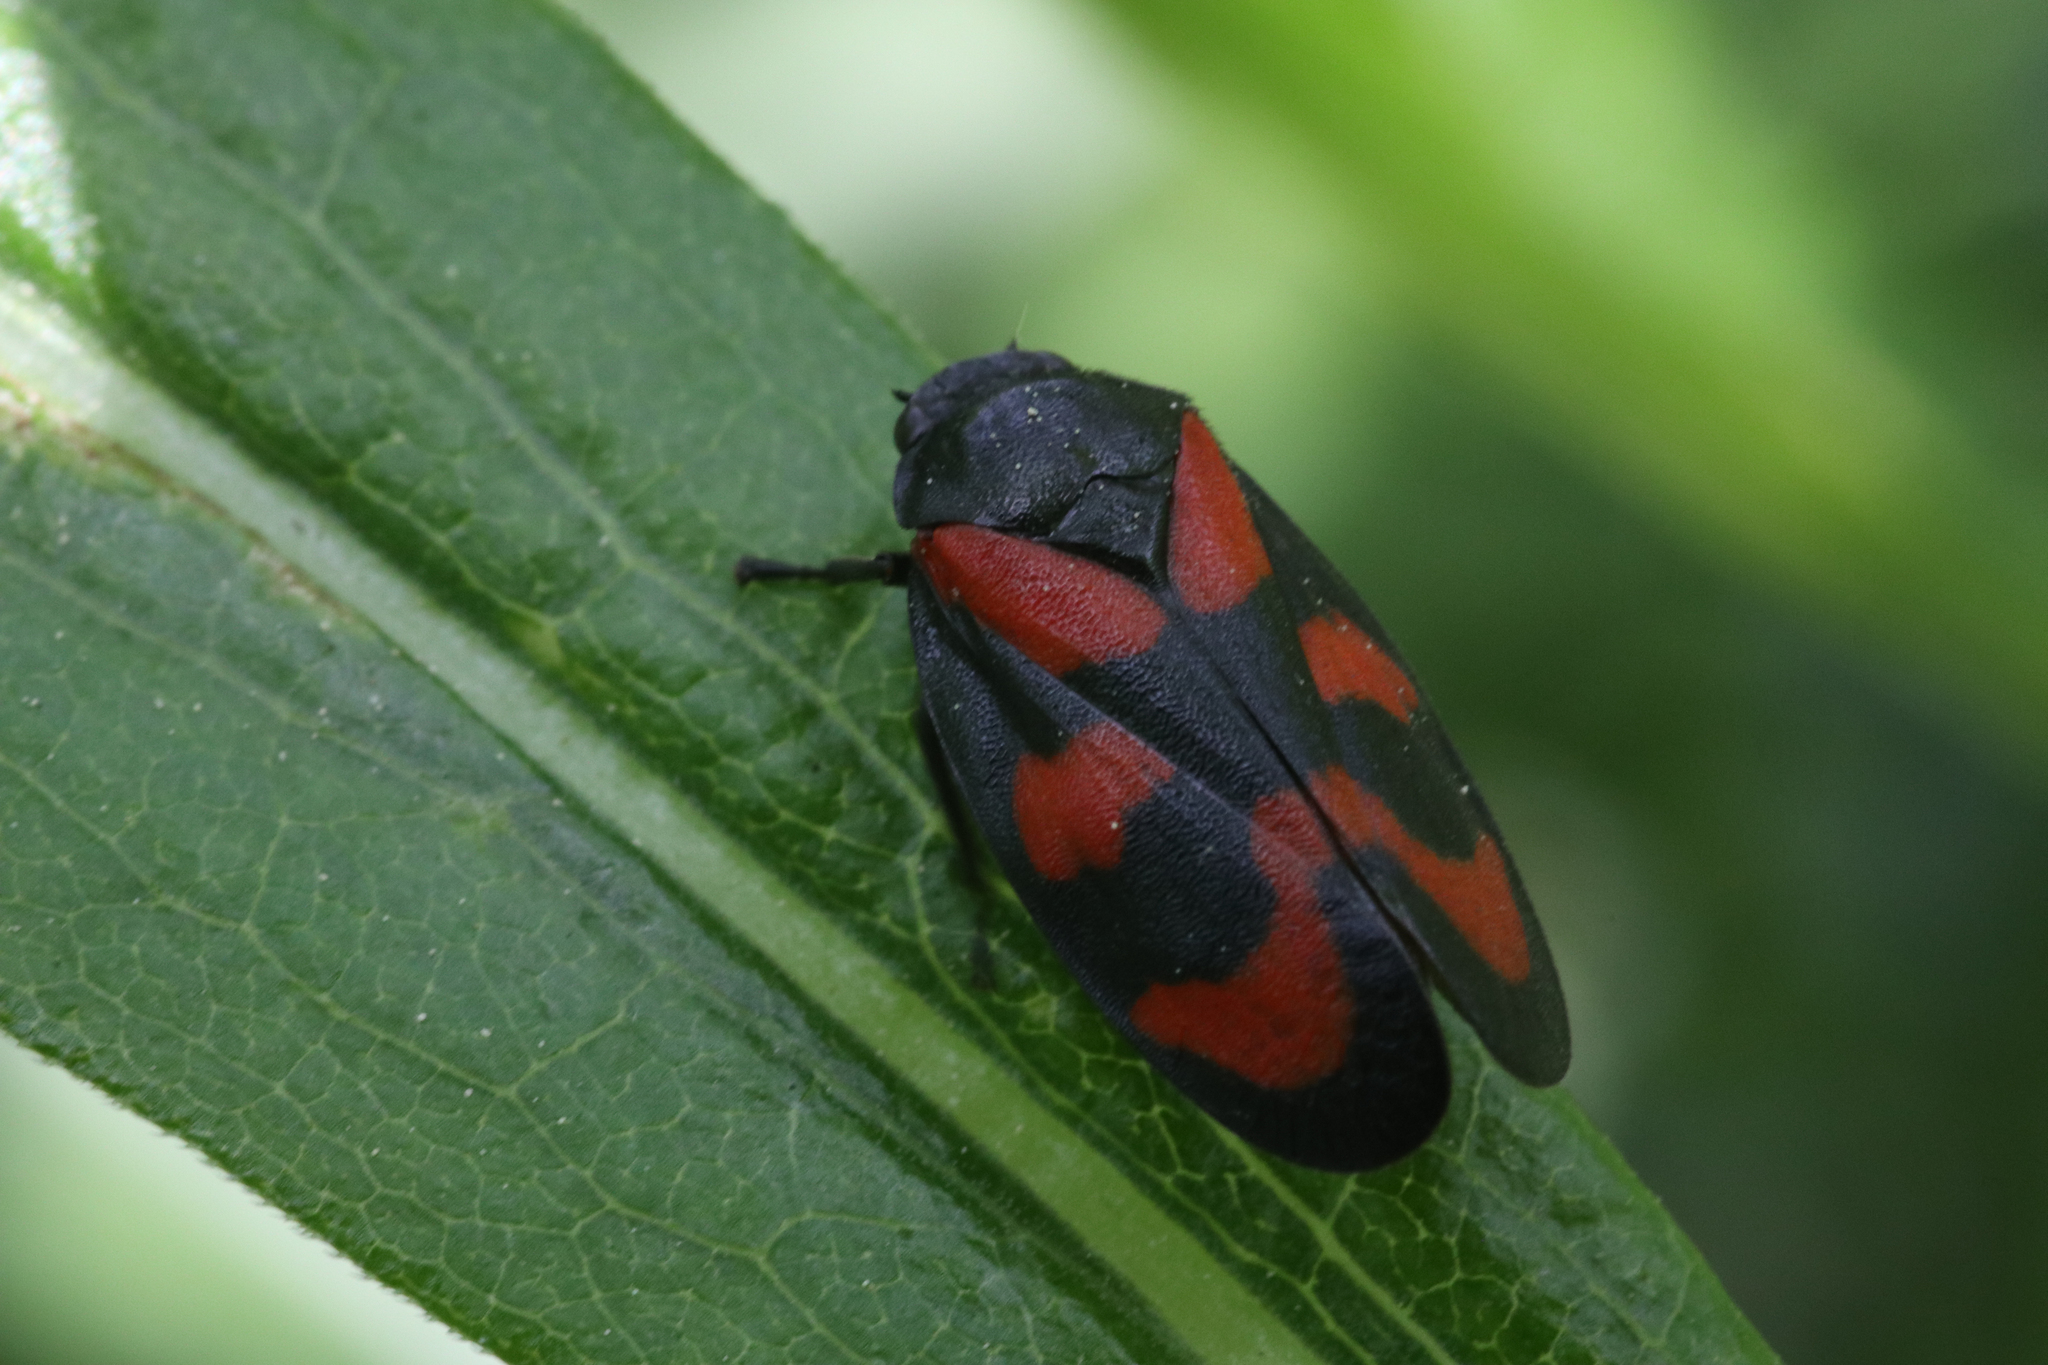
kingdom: Animalia
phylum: Arthropoda
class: Insecta
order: Hemiptera
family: Cercopidae
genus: Cercopis
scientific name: Cercopis vulnerata
